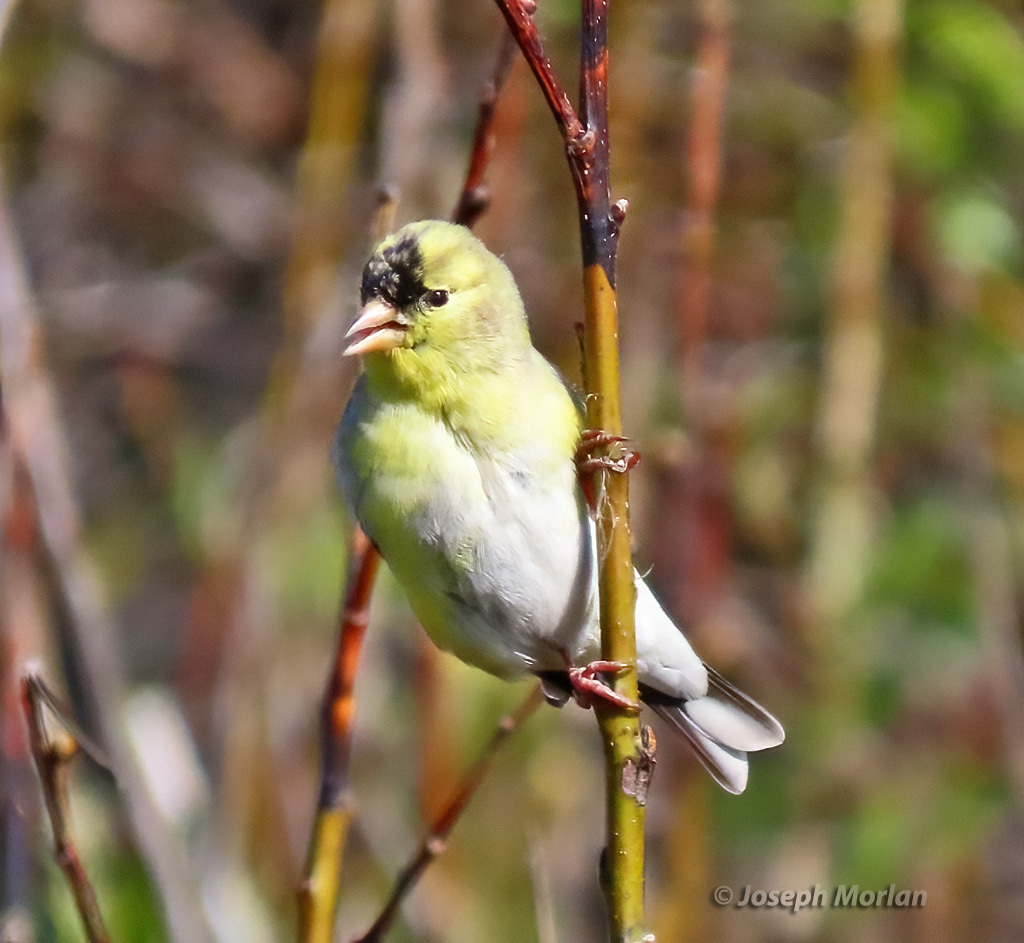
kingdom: Animalia
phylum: Chordata
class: Aves
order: Passeriformes
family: Fringillidae
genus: Spinus
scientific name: Spinus tristis
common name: American goldfinch
